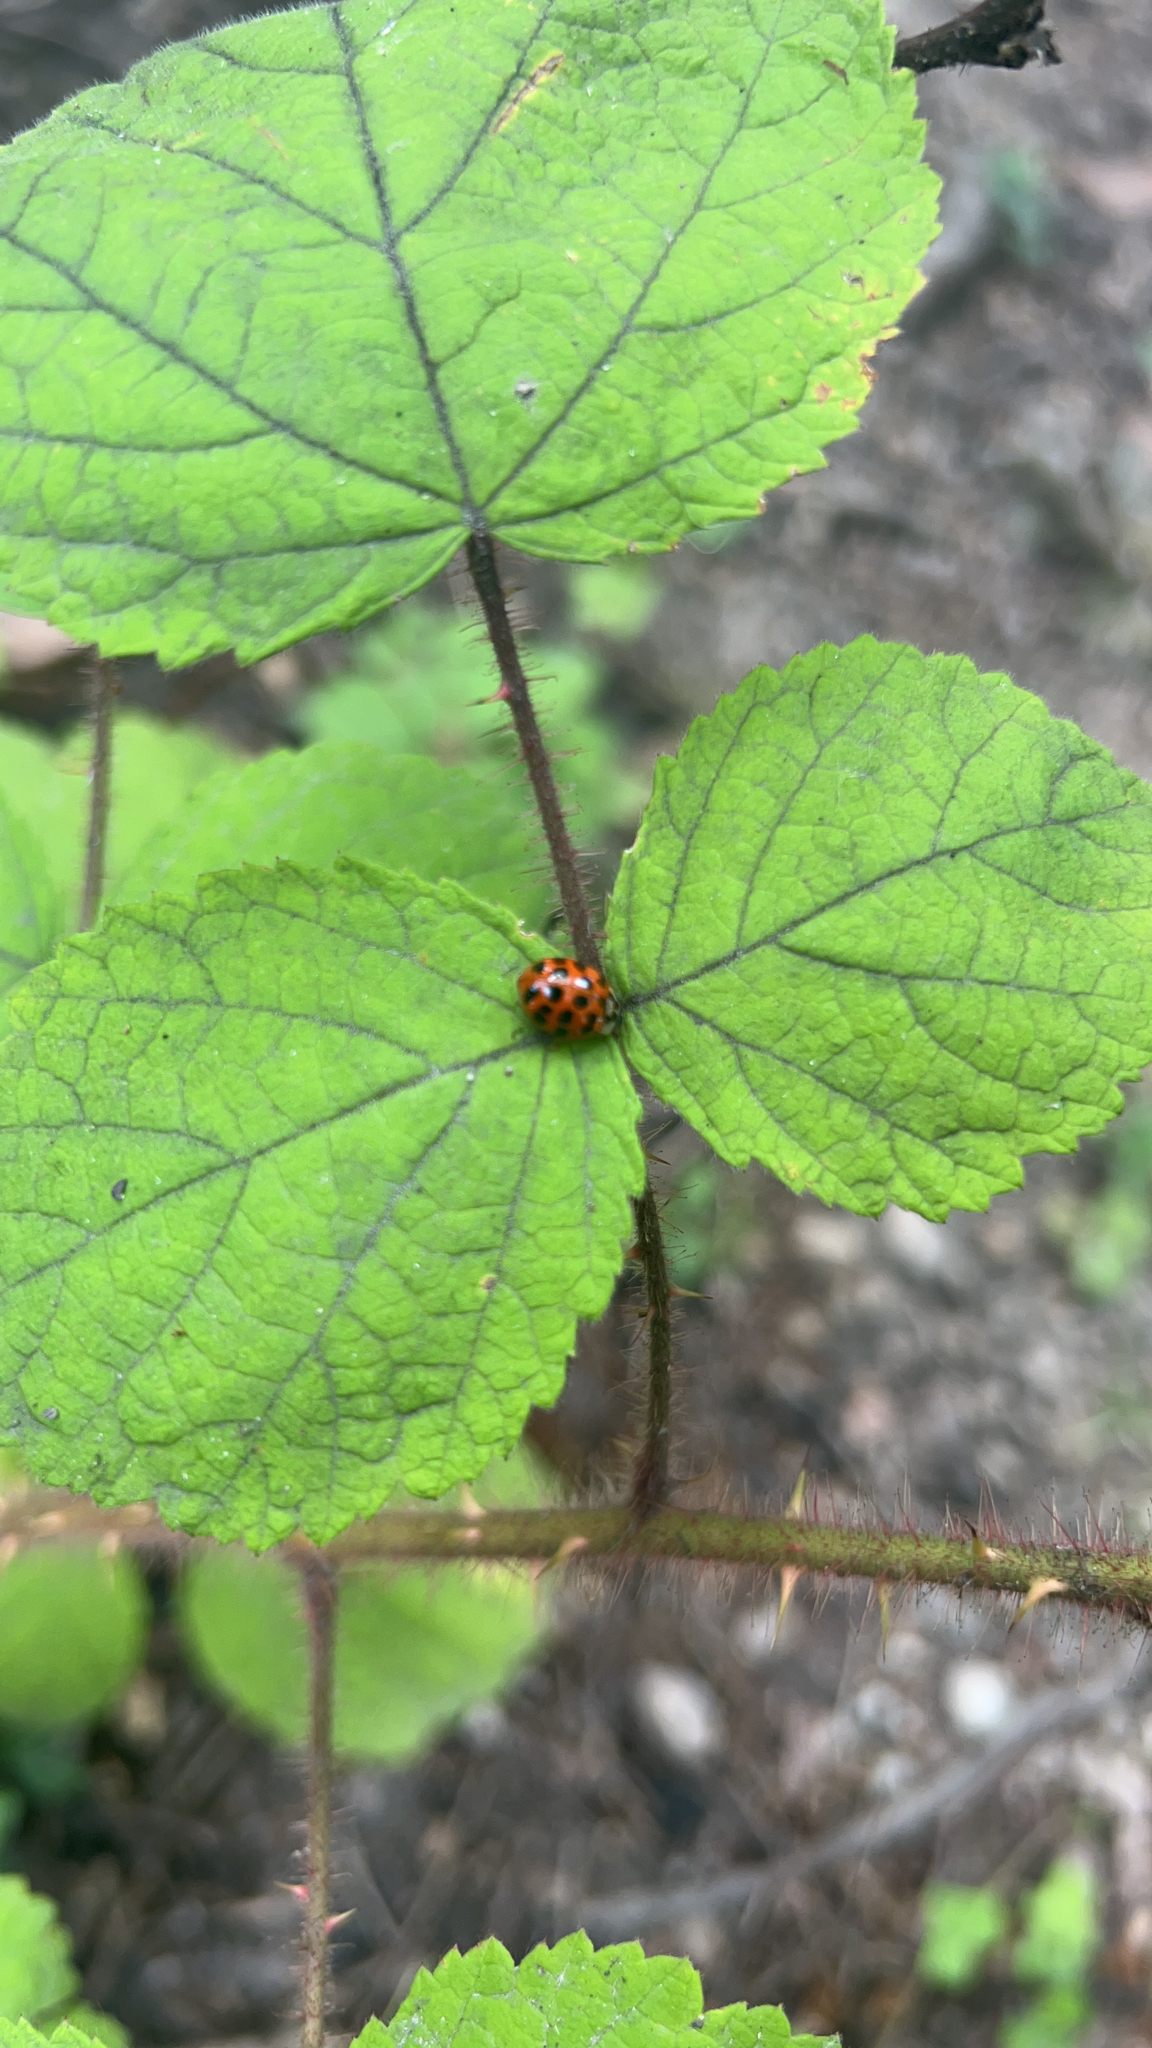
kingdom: Animalia
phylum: Arthropoda
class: Insecta
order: Coleoptera
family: Coccinellidae
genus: Harmonia
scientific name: Harmonia axyridis
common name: Harlequin ladybird
